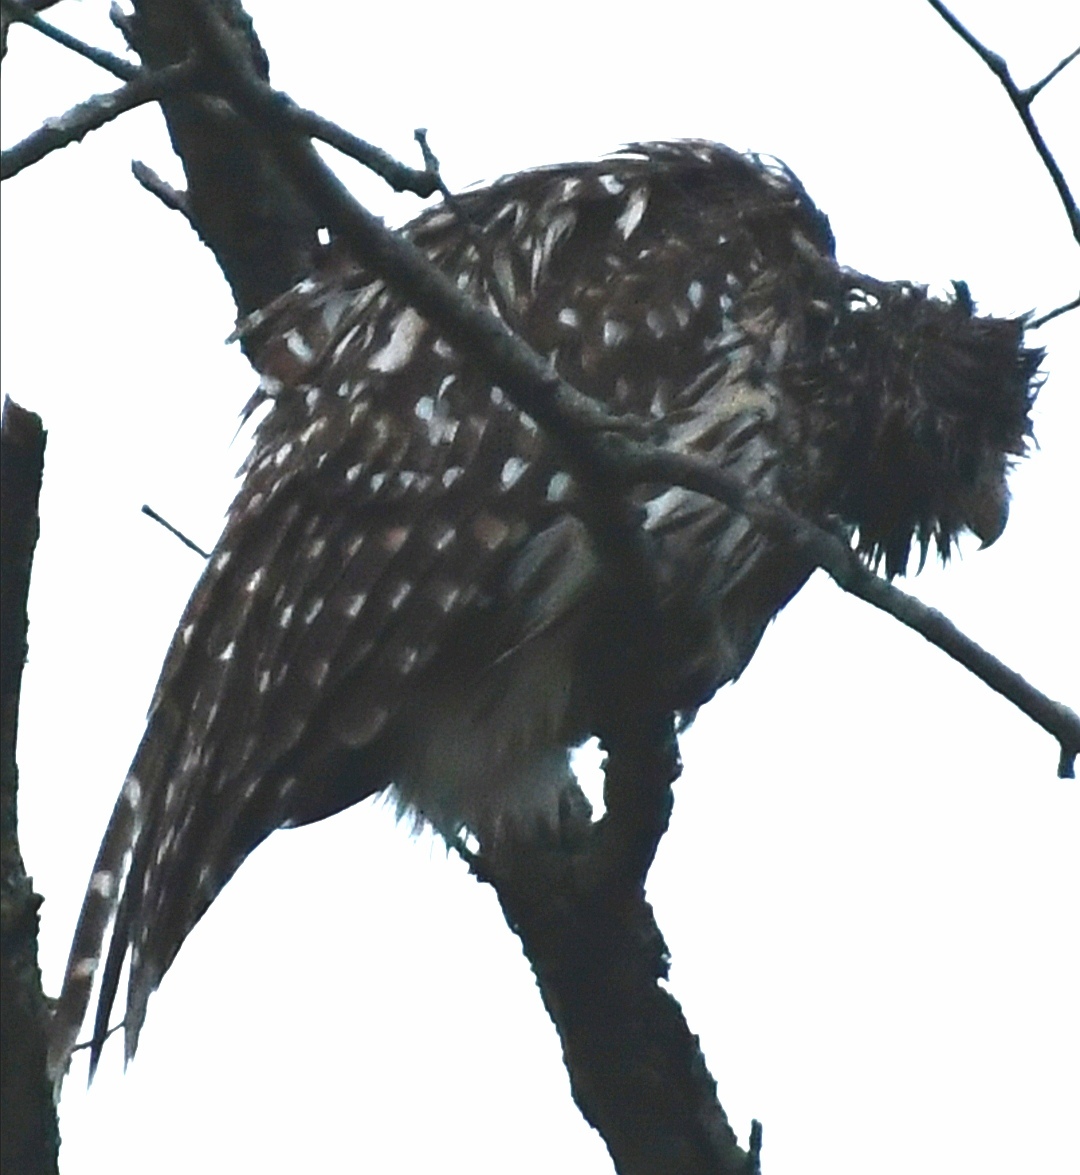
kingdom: Animalia
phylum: Chordata
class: Aves
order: Strigiformes
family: Strigidae
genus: Strix
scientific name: Strix varia
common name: Barred owl
